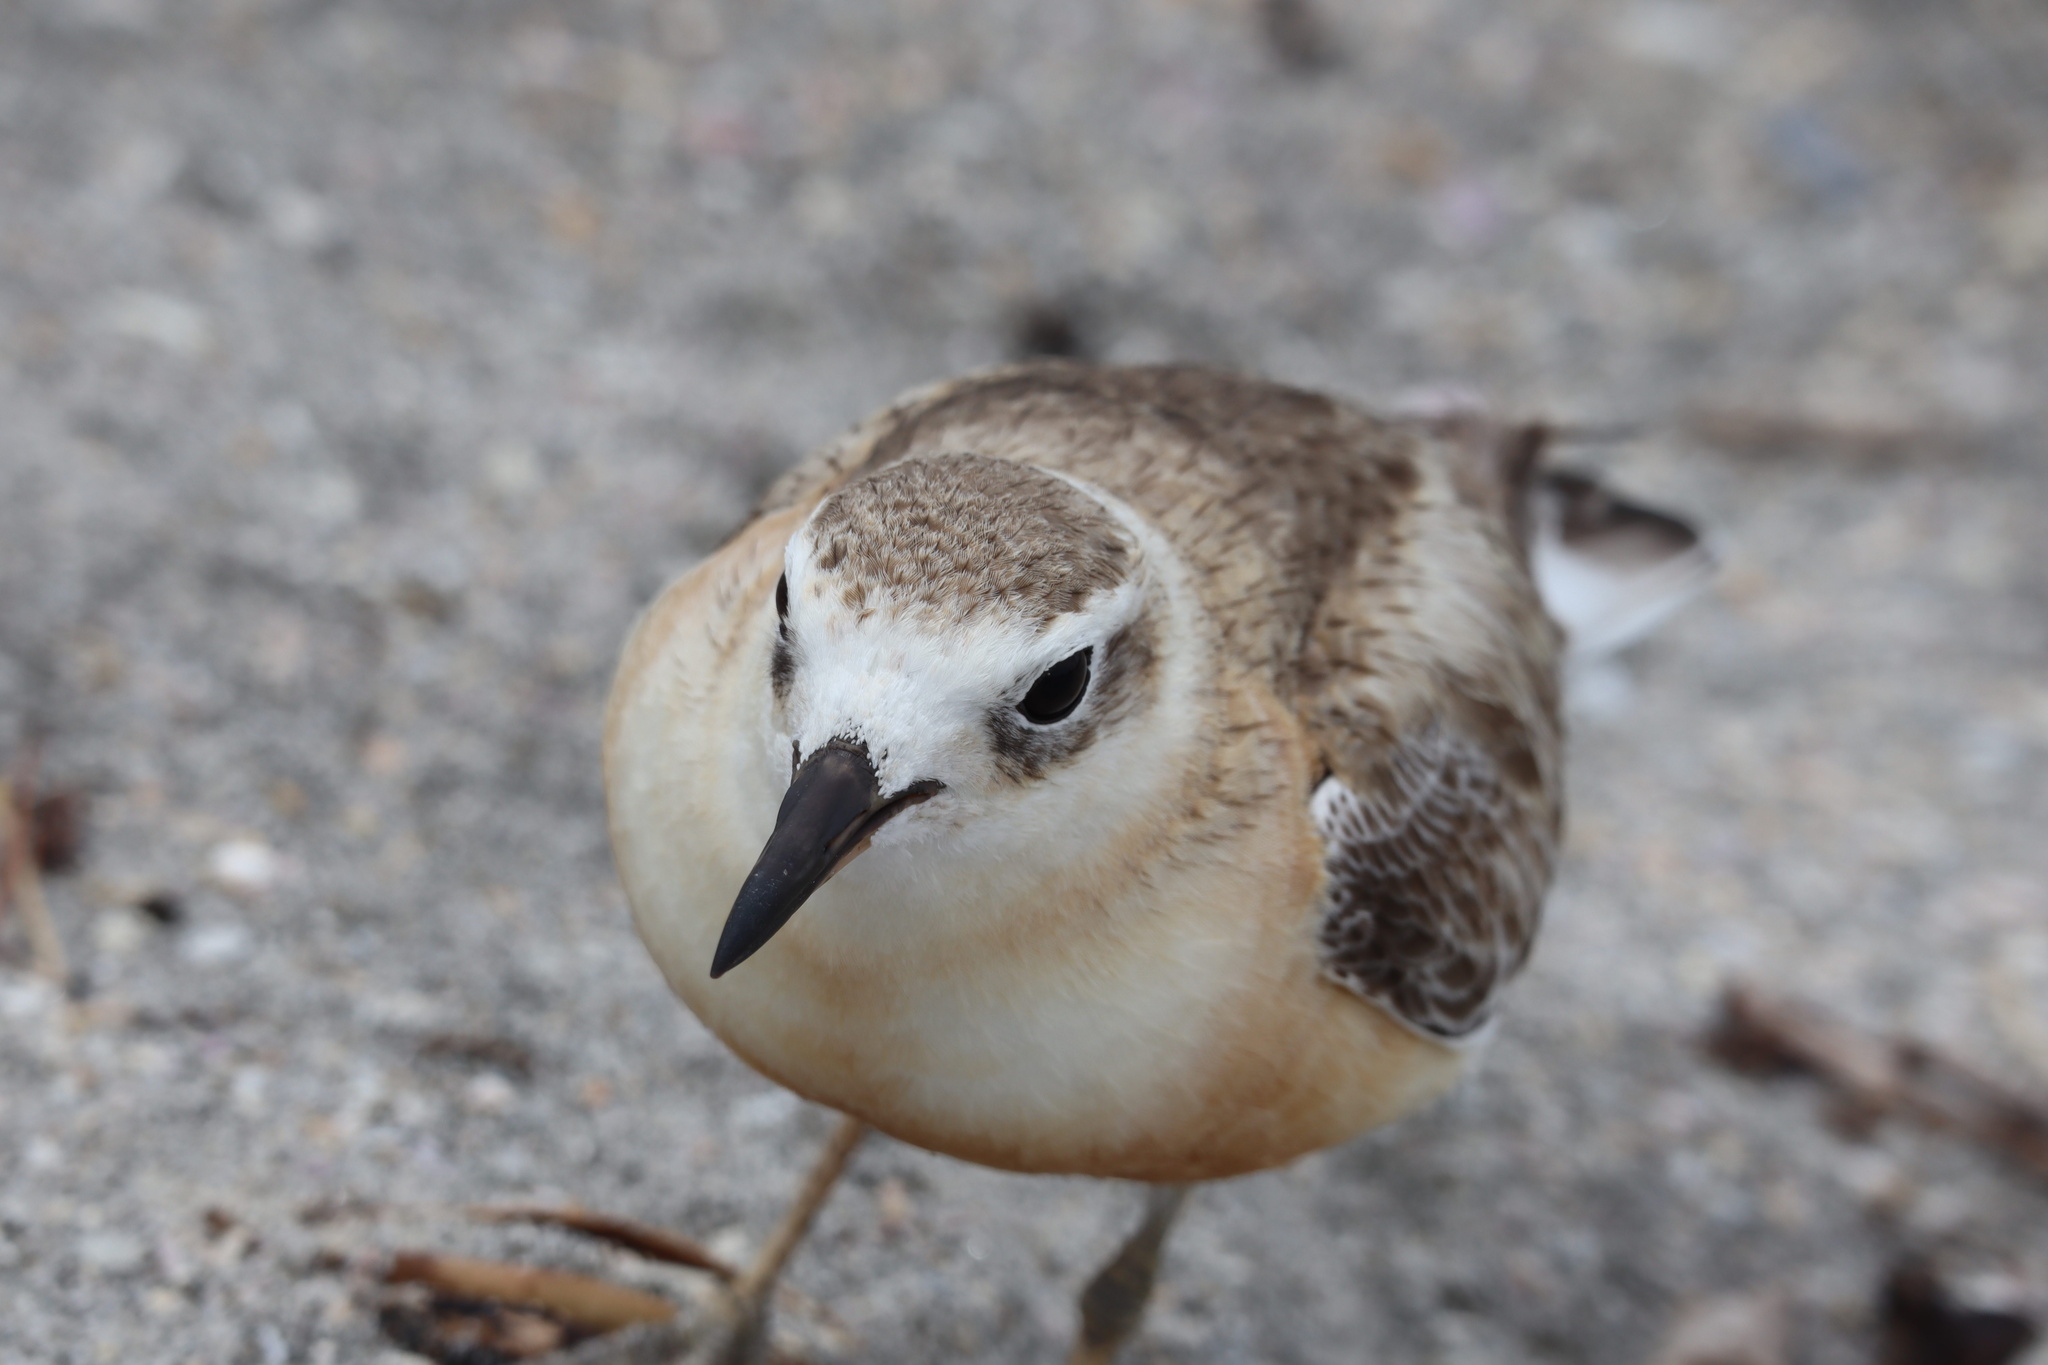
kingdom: Animalia
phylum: Chordata
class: Aves
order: Charadriiformes
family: Charadriidae
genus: Anarhynchus
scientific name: Anarhynchus
